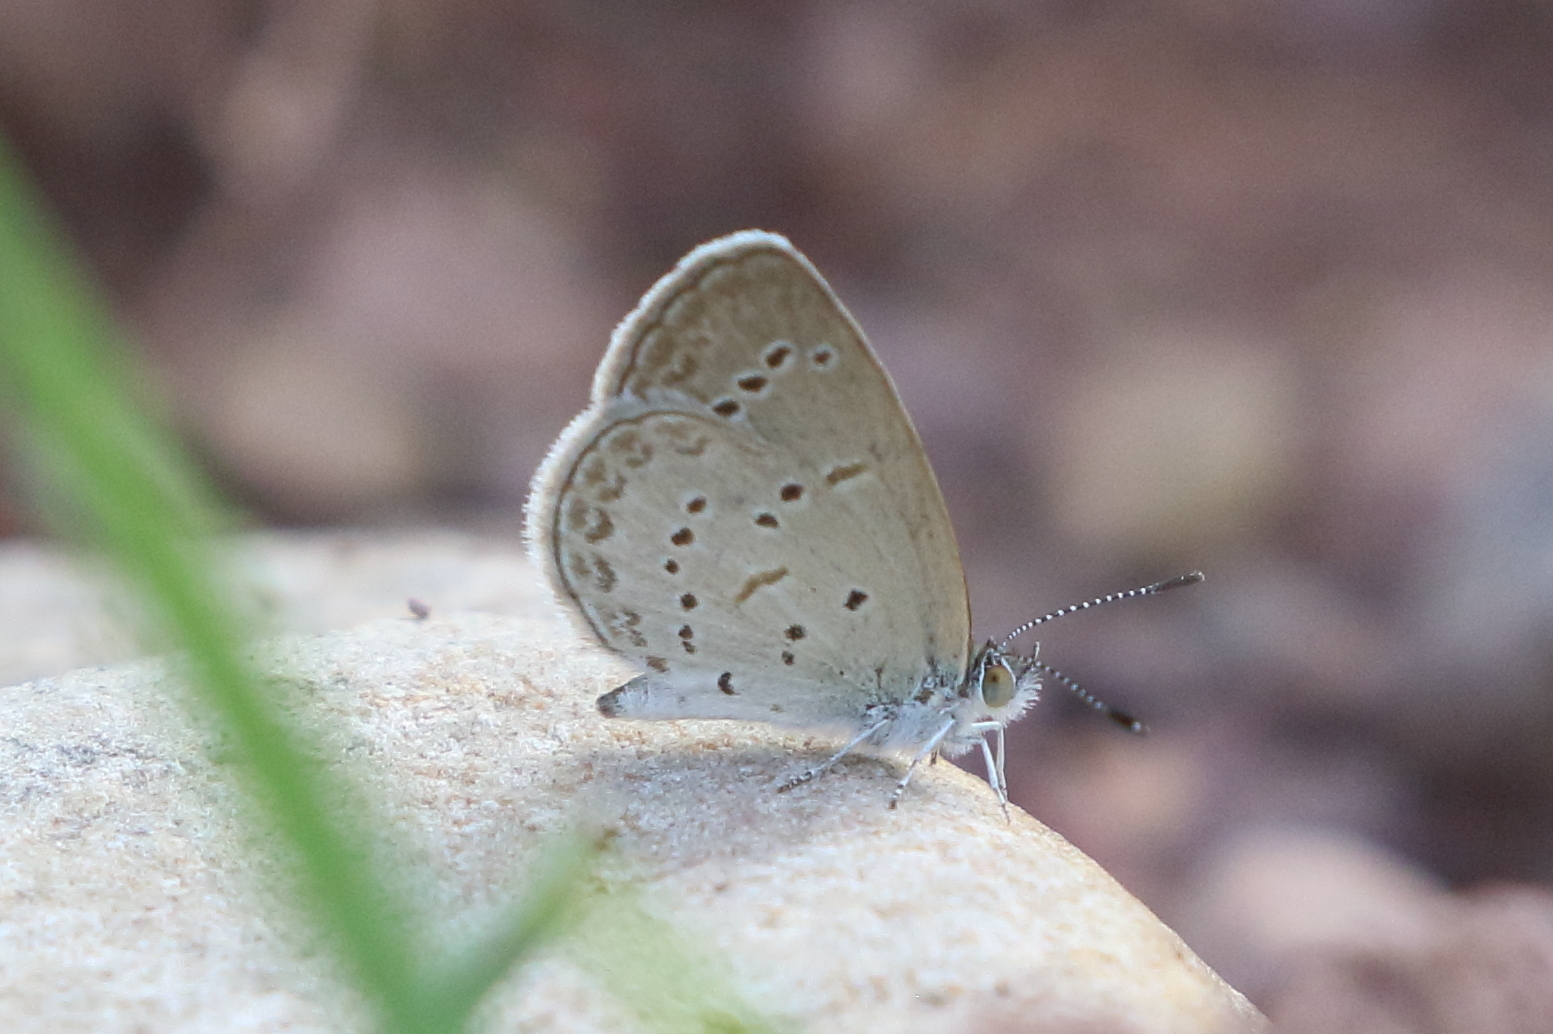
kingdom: Animalia
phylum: Arthropoda
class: Insecta
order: Lepidoptera
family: Lycaenidae
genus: Zizina
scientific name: Zizina otis
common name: Lesser grass blue
